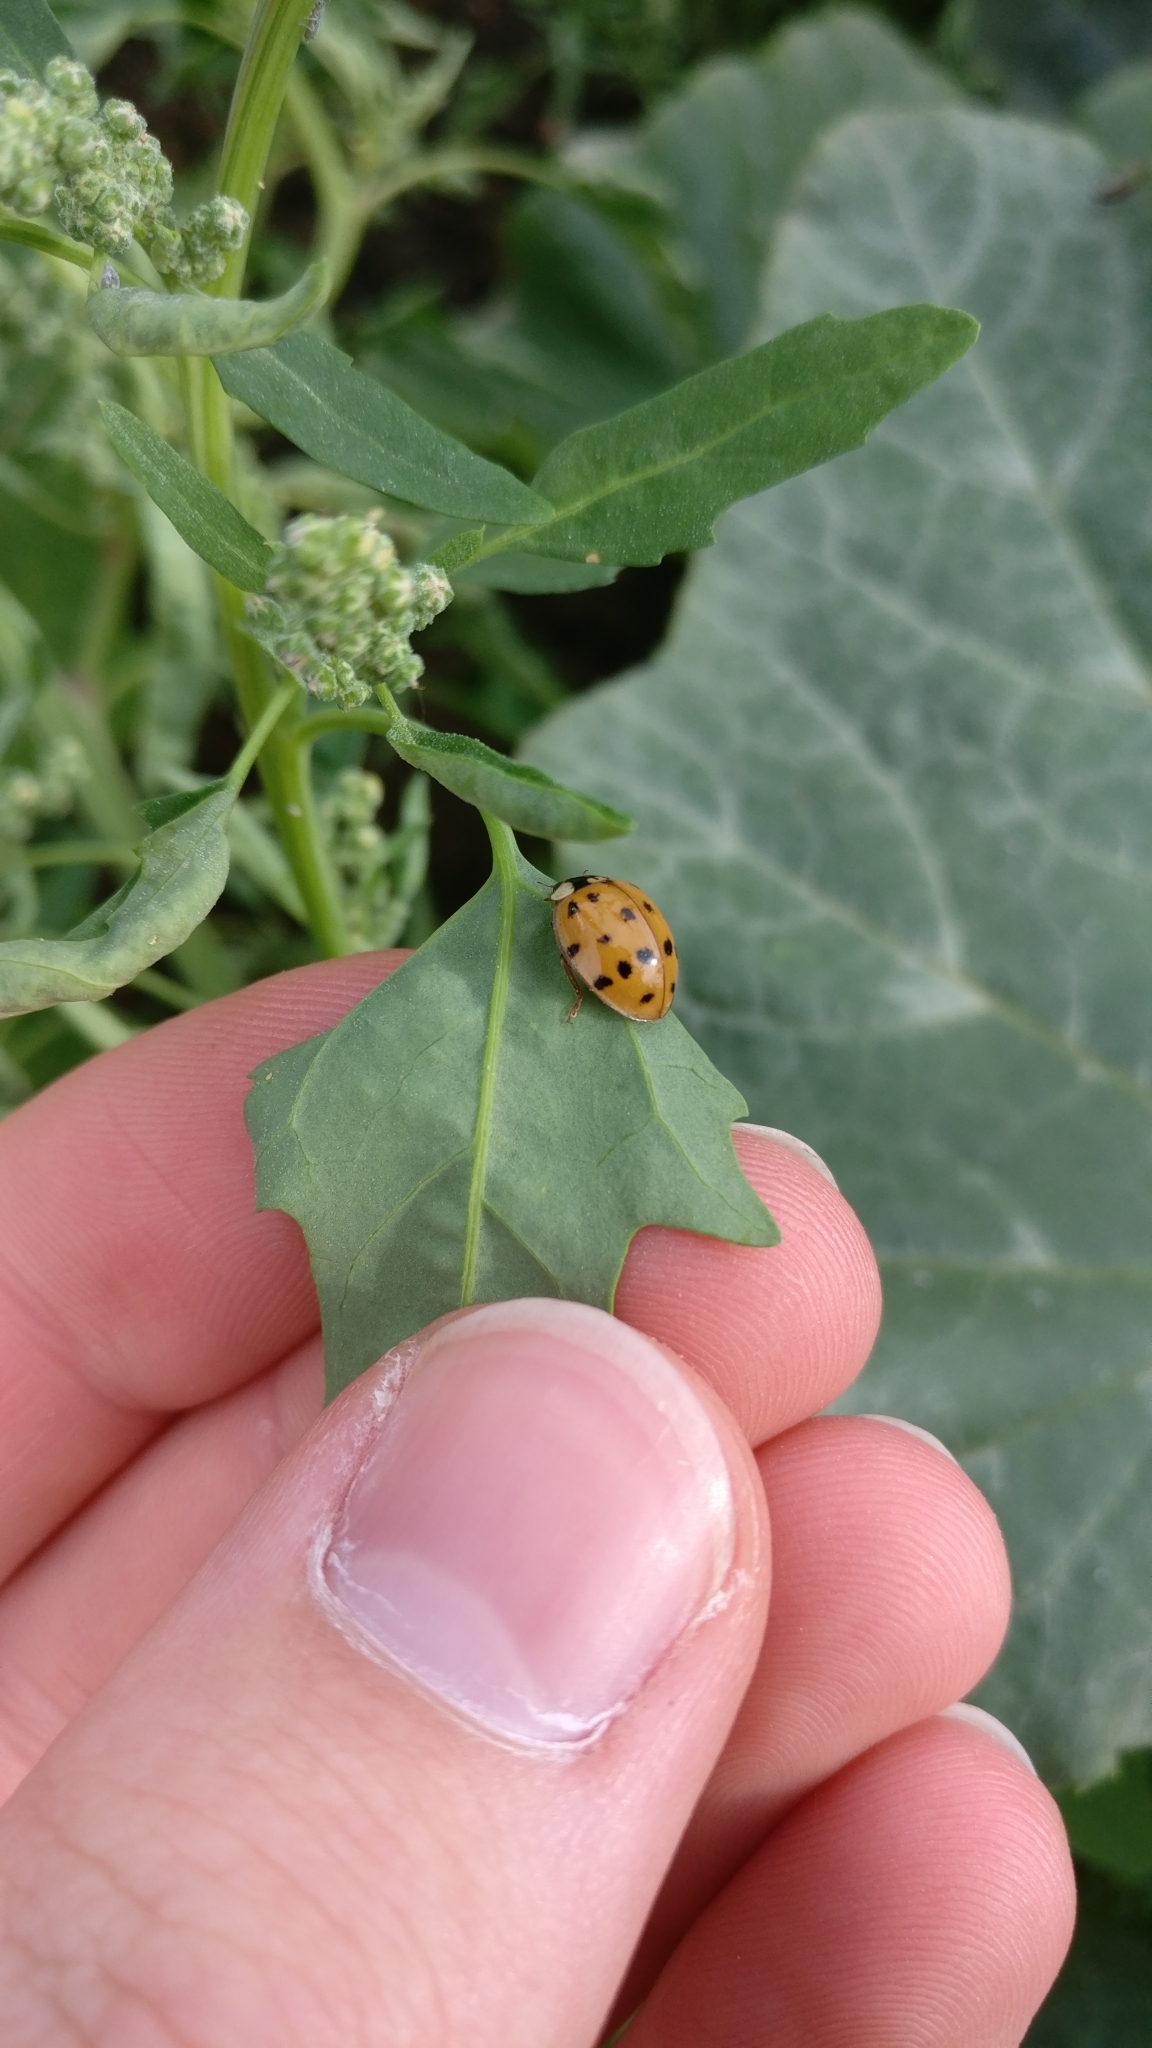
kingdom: Animalia
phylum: Arthropoda
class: Insecta
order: Coleoptera
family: Coccinellidae
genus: Harmonia
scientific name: Harmonia axyridis
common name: Harlequin ladybird
